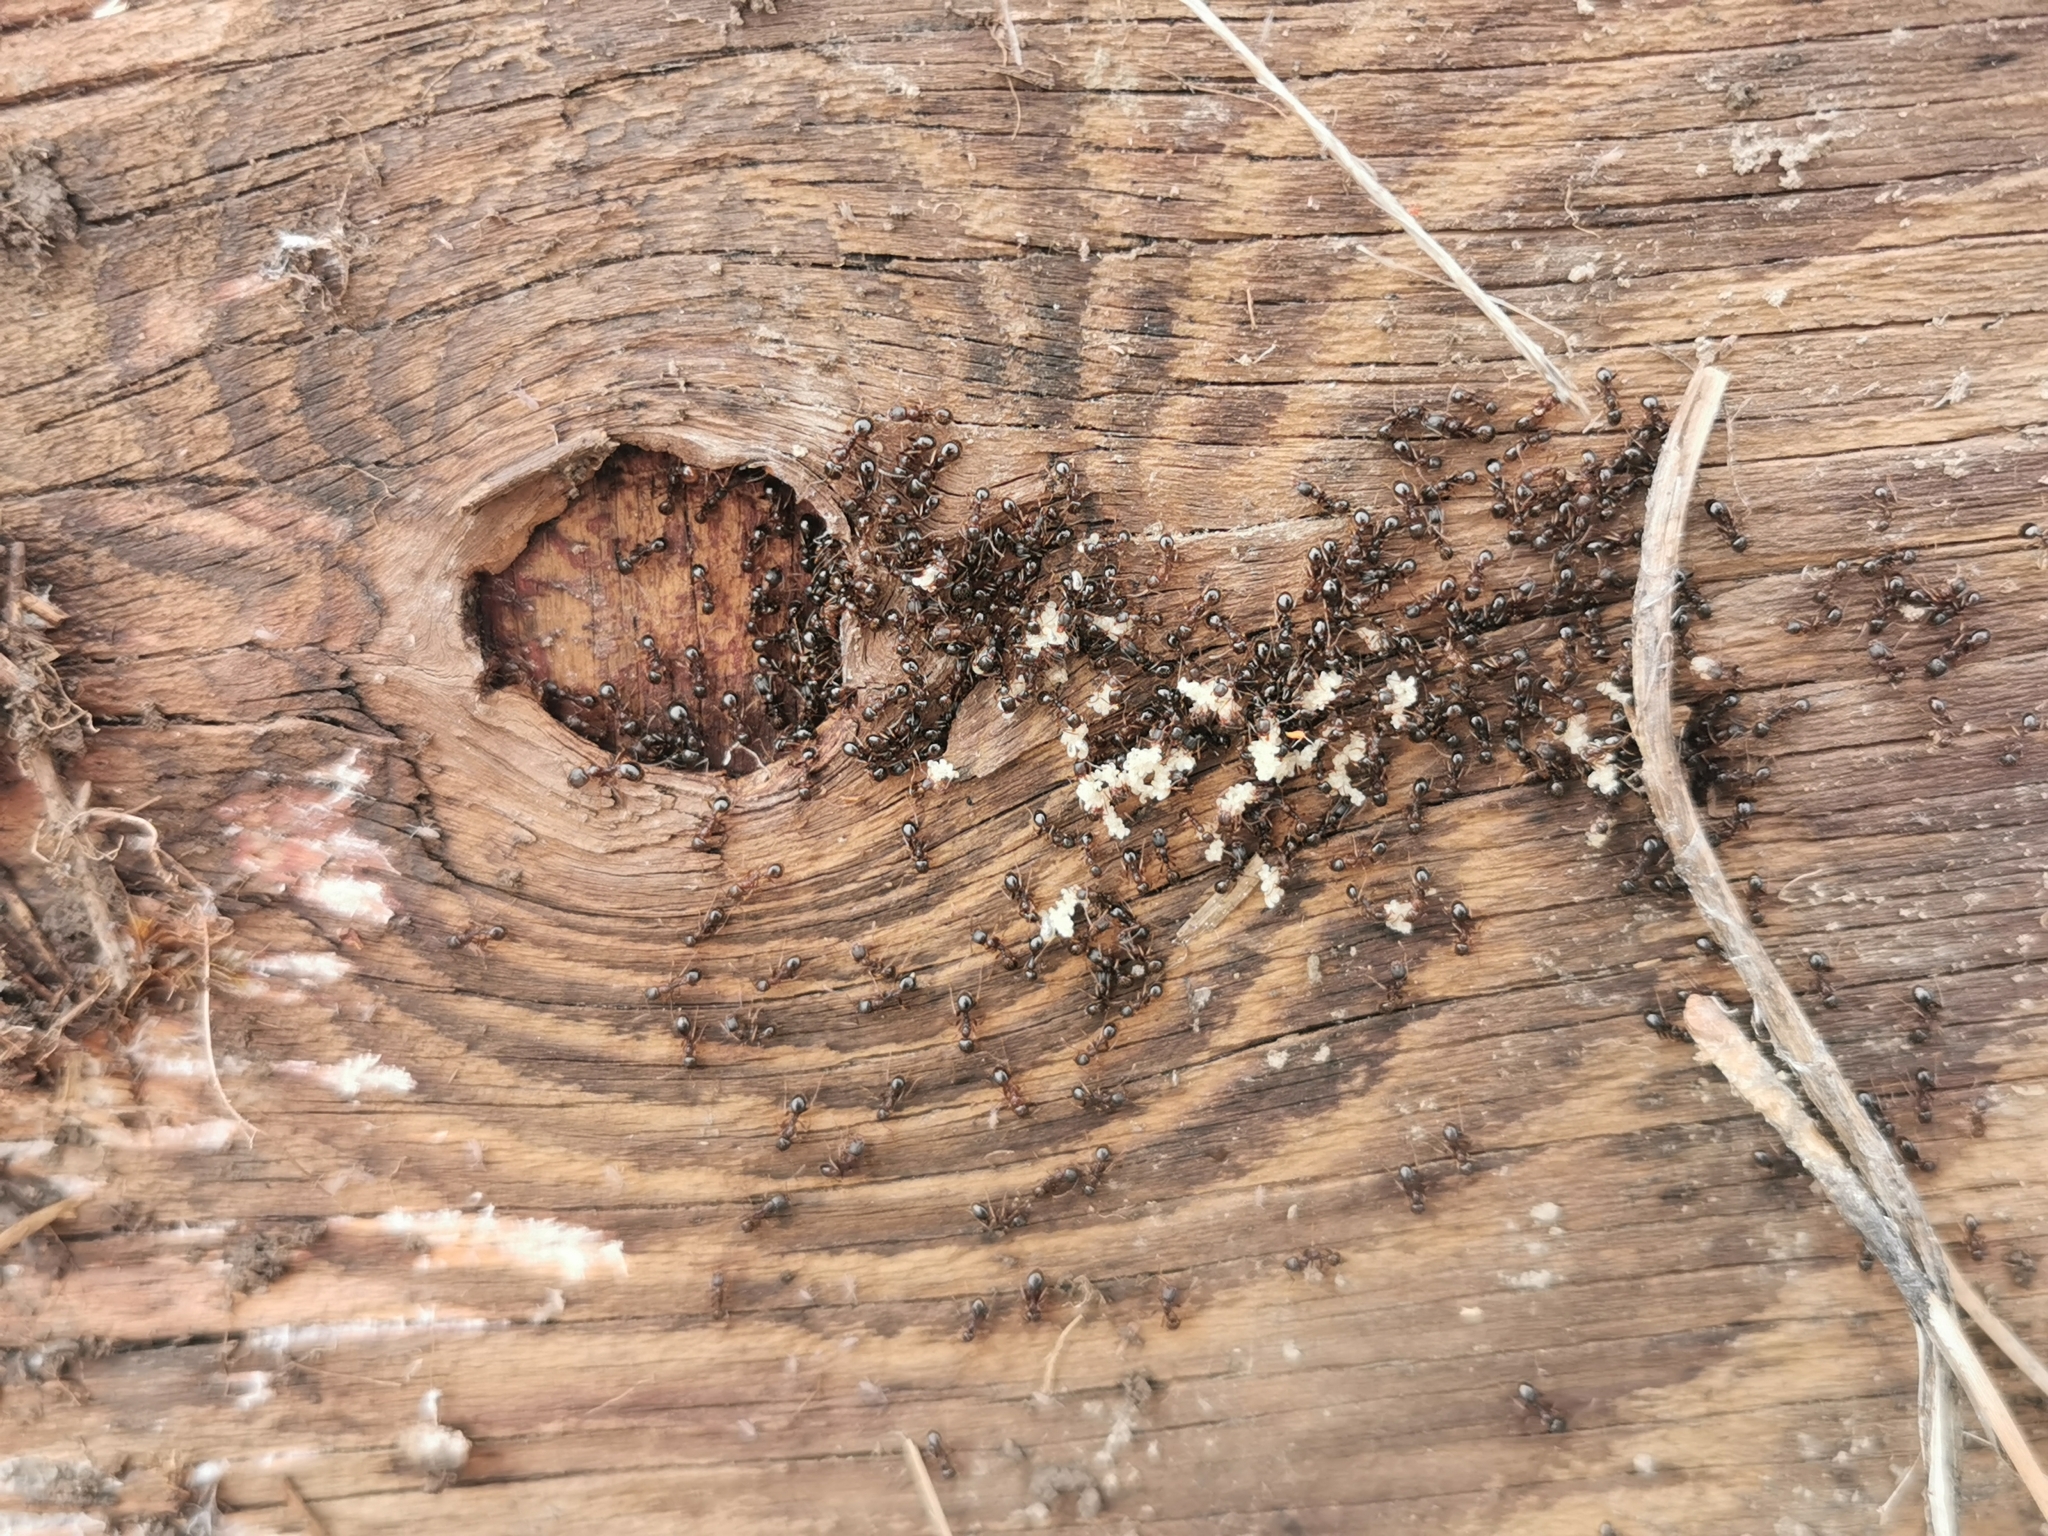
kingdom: Animalia
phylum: Arthropoda
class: Insecta
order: Hymenoptera
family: Formicidae
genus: Aphaenogaster
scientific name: Aphaenogaster occidentalis
